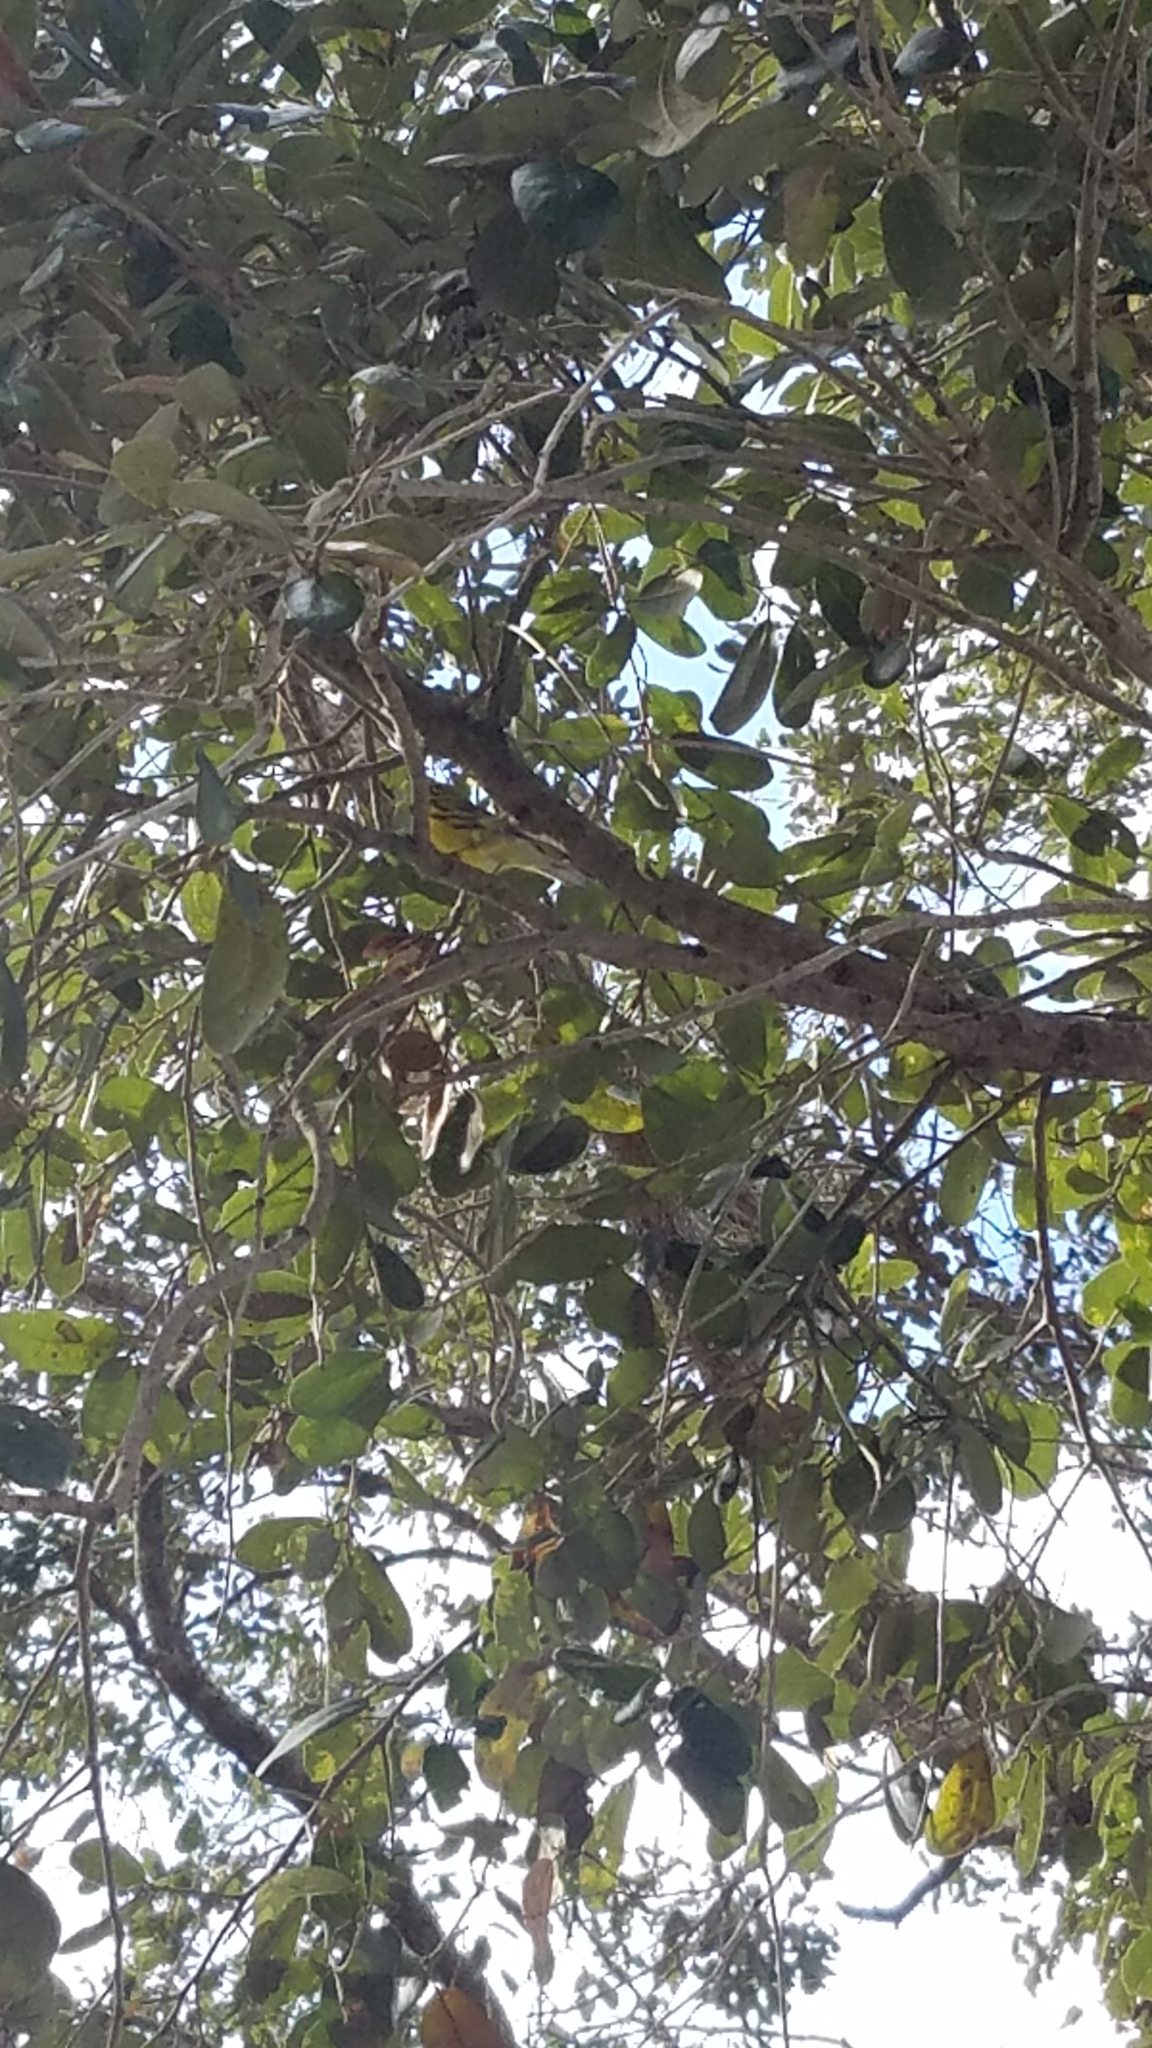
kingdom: Animalia
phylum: Chordata
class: Aves
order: Passeriformes
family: Parulidae
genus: Setophaga
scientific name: Setophaga discolor
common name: Prairie warbler
